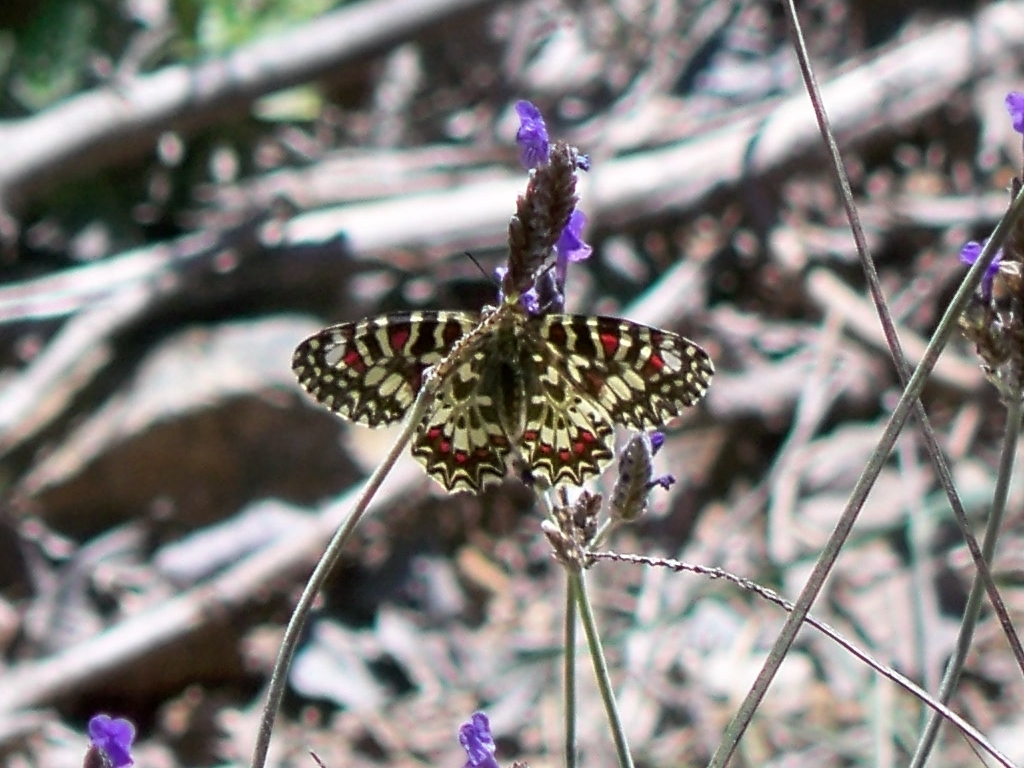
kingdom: Animalia
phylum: Arthropoda
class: Insecta
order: Lepidoptera
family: Papilionidae
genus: Zerynthia
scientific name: Zerynthia rumina
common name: Spanish festoon
